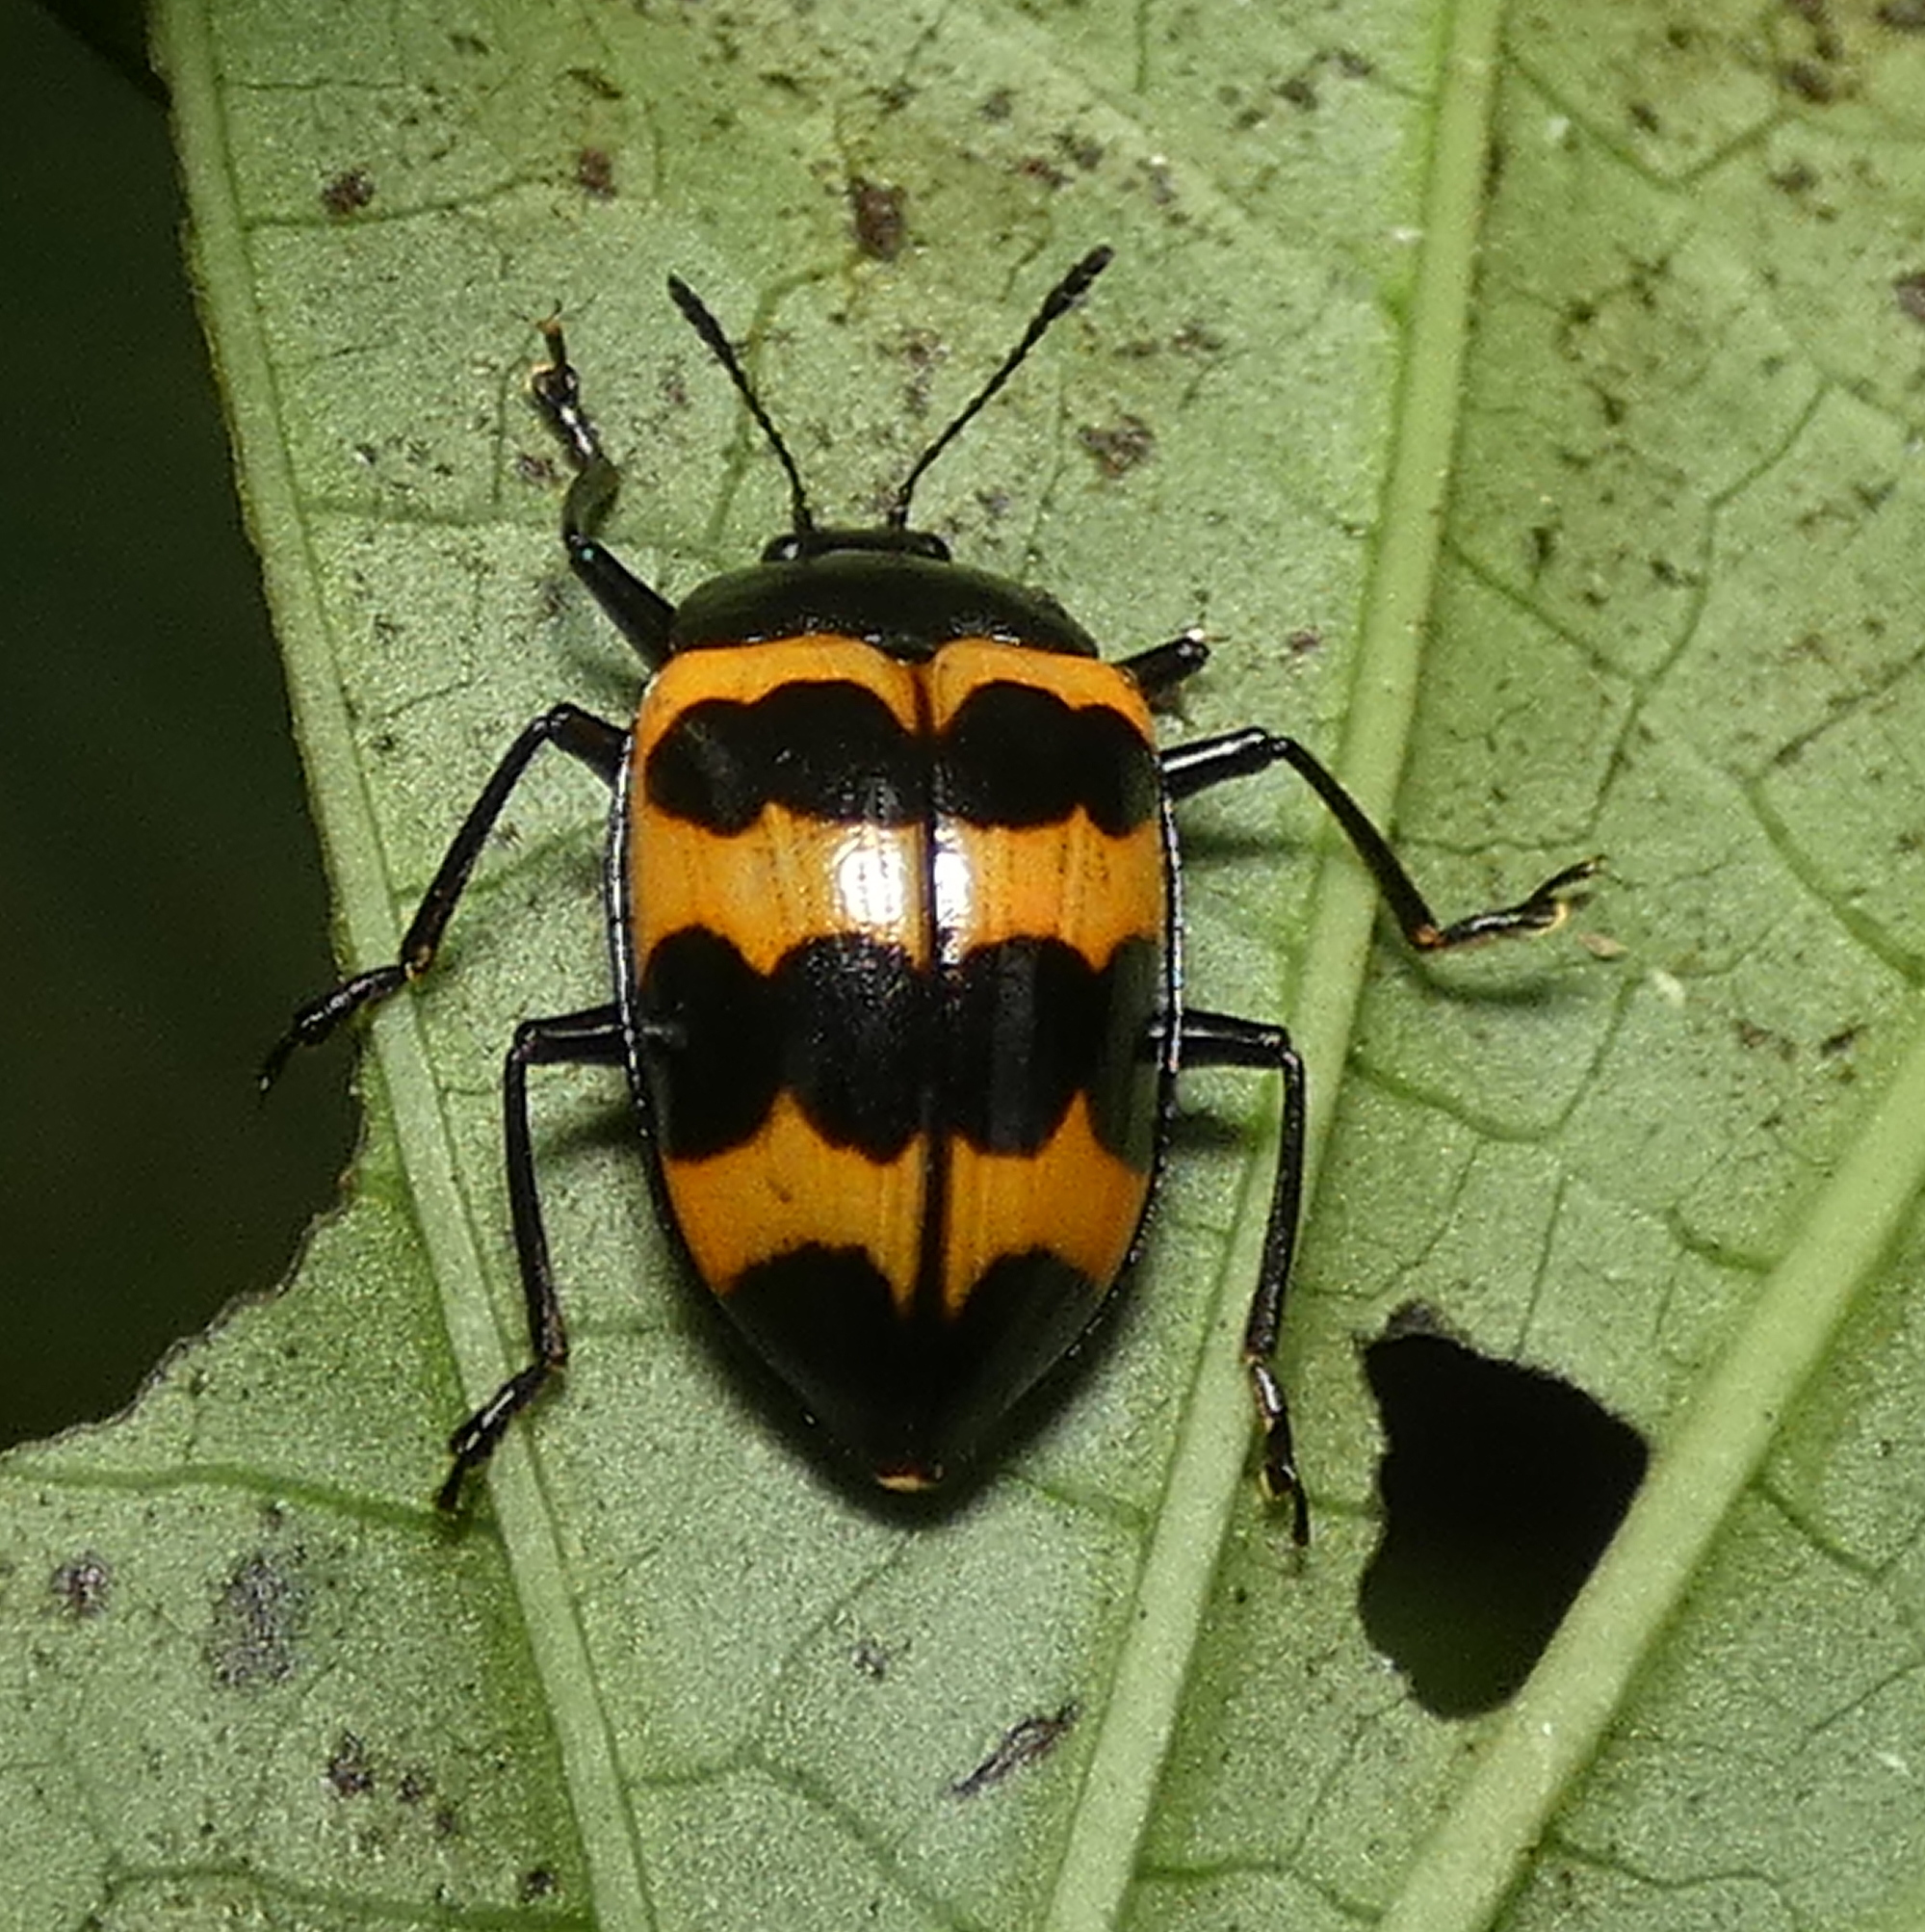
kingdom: Animalia
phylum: Arthropoda
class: Insecta
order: Coleoptera
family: Erotylidae
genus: Oligocorynus
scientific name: Oligocorynus
